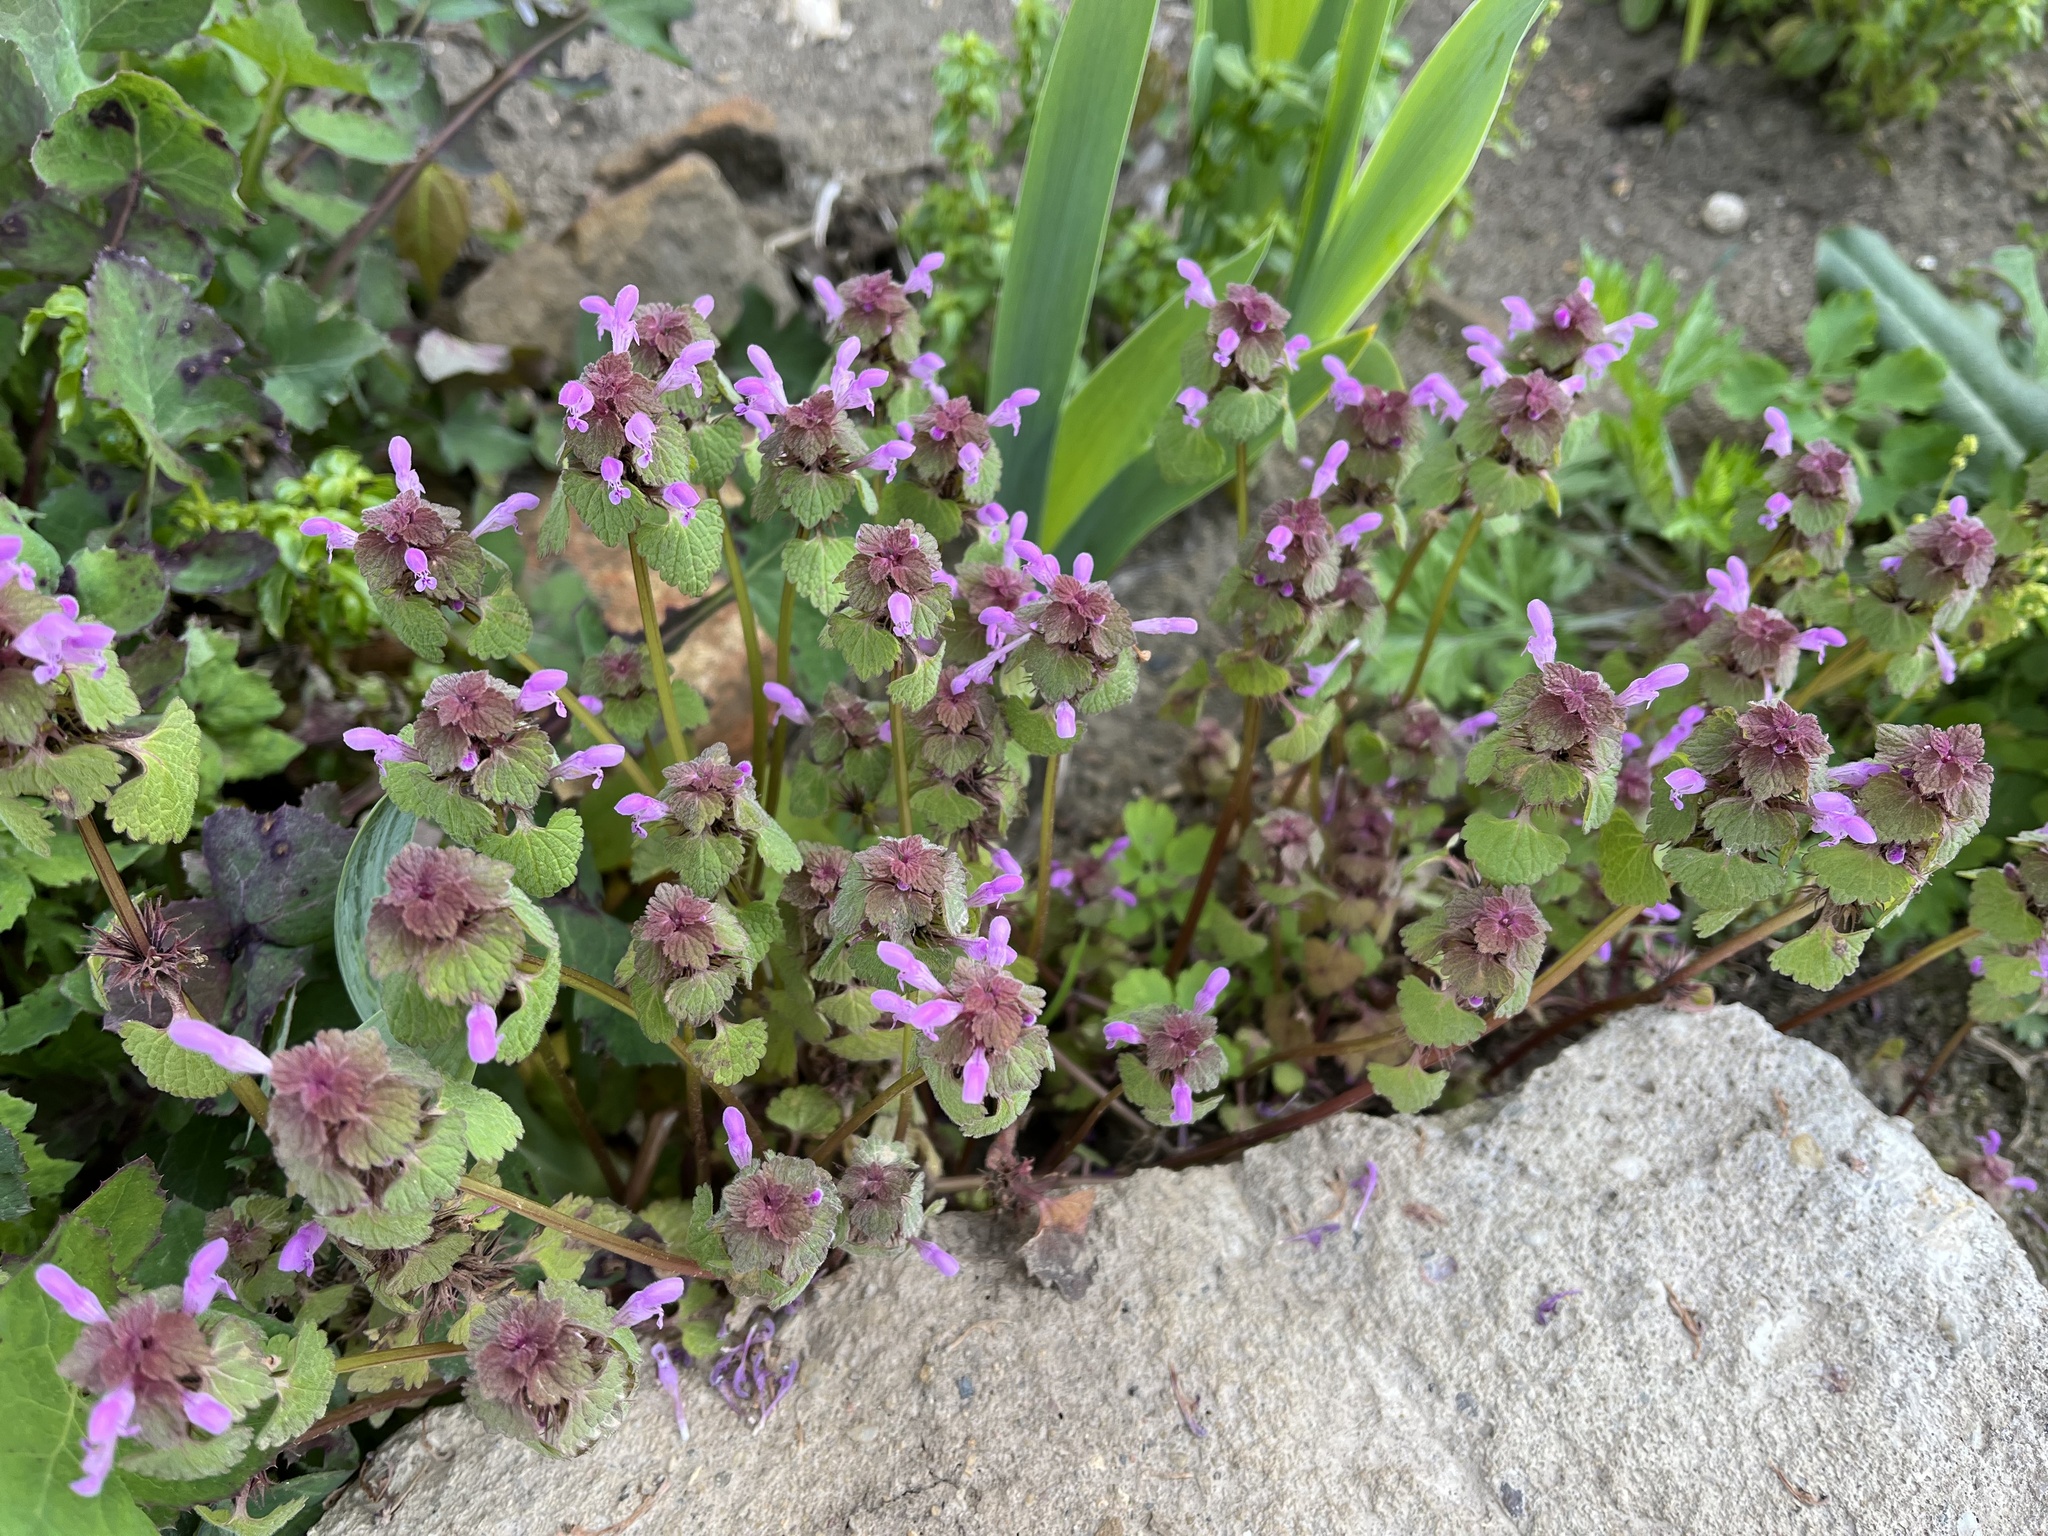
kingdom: Plantae
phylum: Tracheophyta
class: Magnoliopsida
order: Lamiales
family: Lamiaceae
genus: Lamium
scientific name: Lamium purpureum
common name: Red dead-nettle
